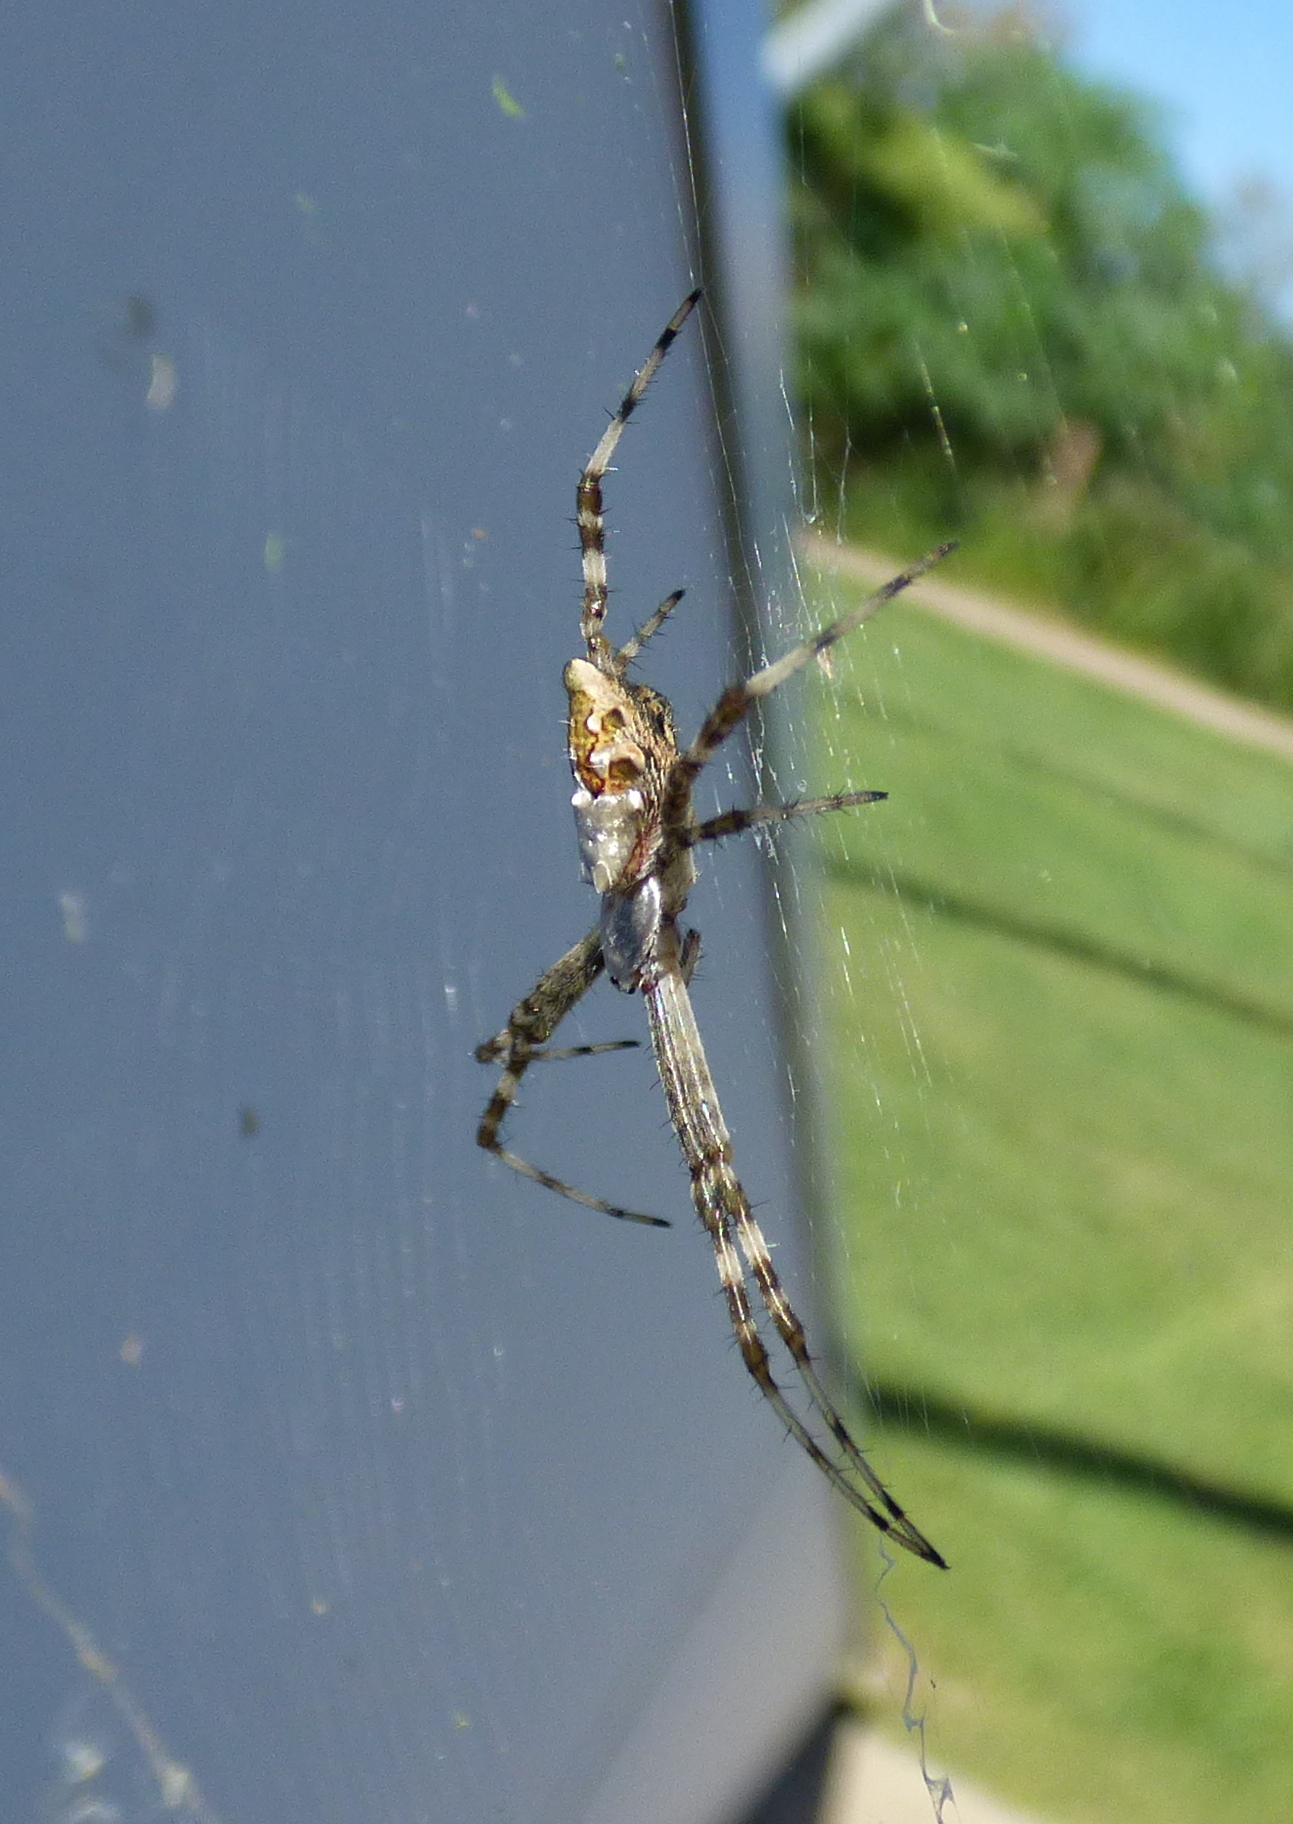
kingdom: Animalia
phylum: Arthropoda
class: Arachnida
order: Araneae
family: Araneidae
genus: Argiope
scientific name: Argiope argentata
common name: Orb weavers
